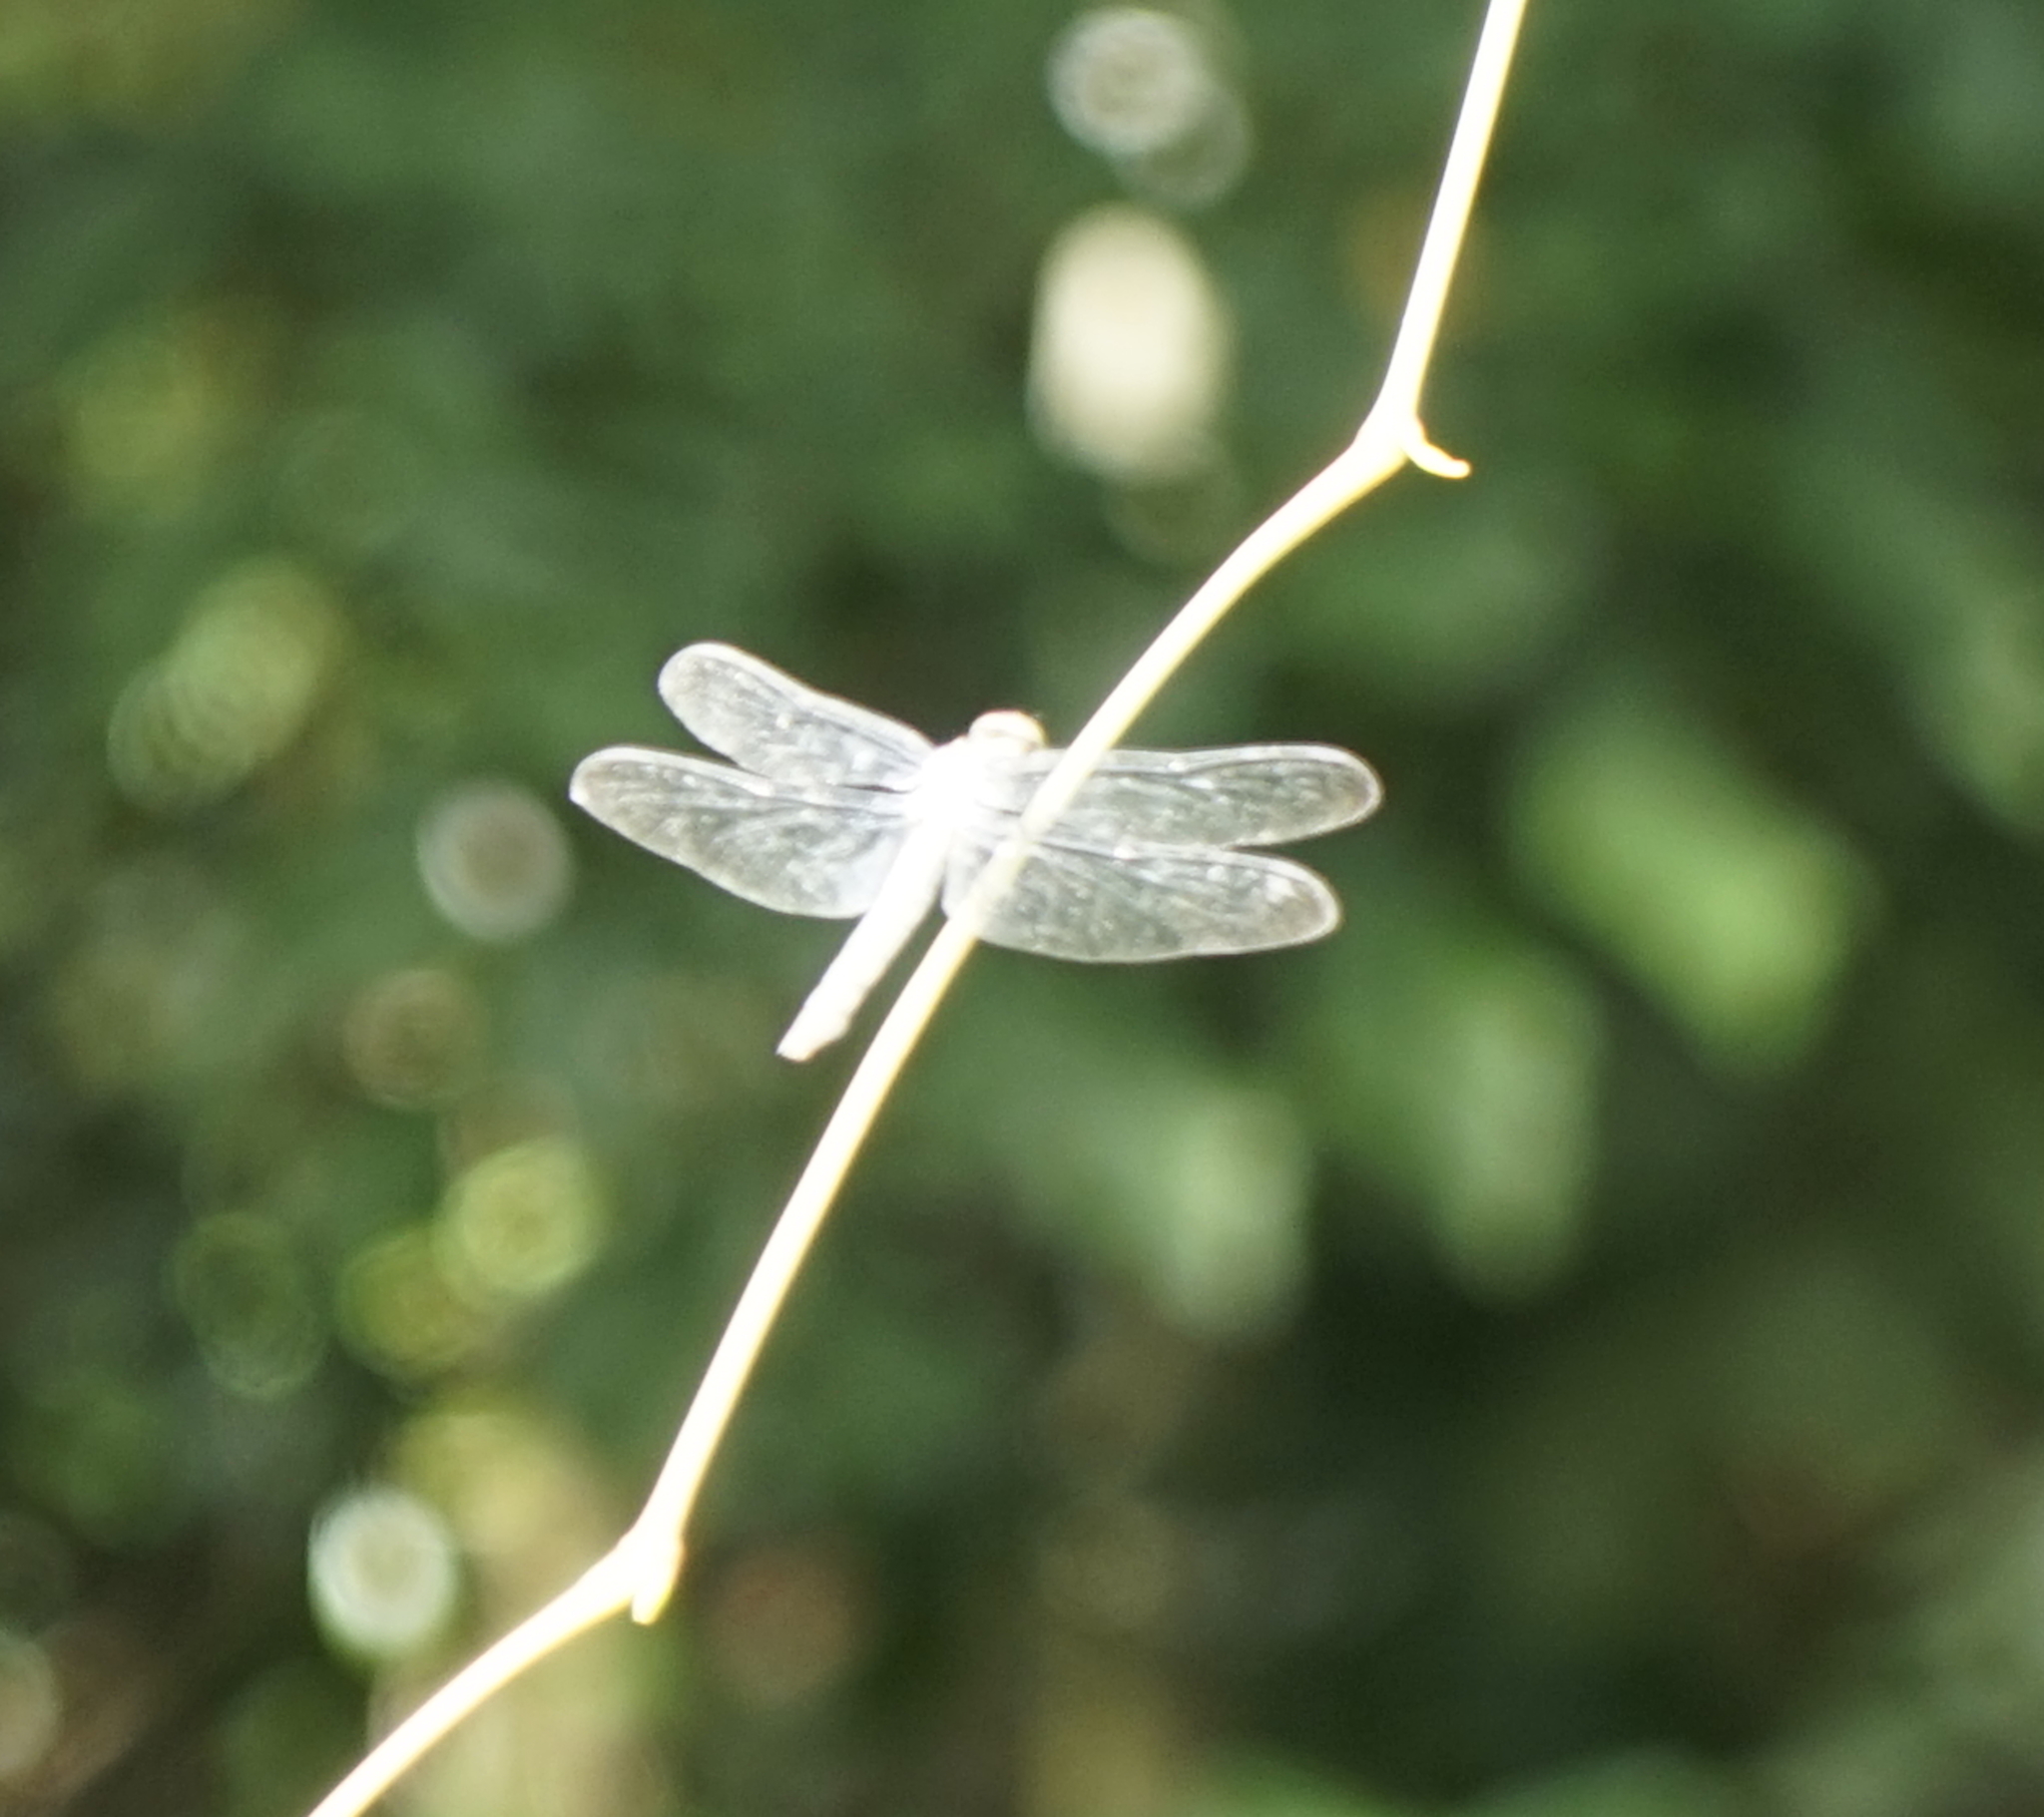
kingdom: Animalia
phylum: Arthropoda
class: Insecta
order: Odonata
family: Libellulidae
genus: Orthetrum
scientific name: Orthetrum glaucum
